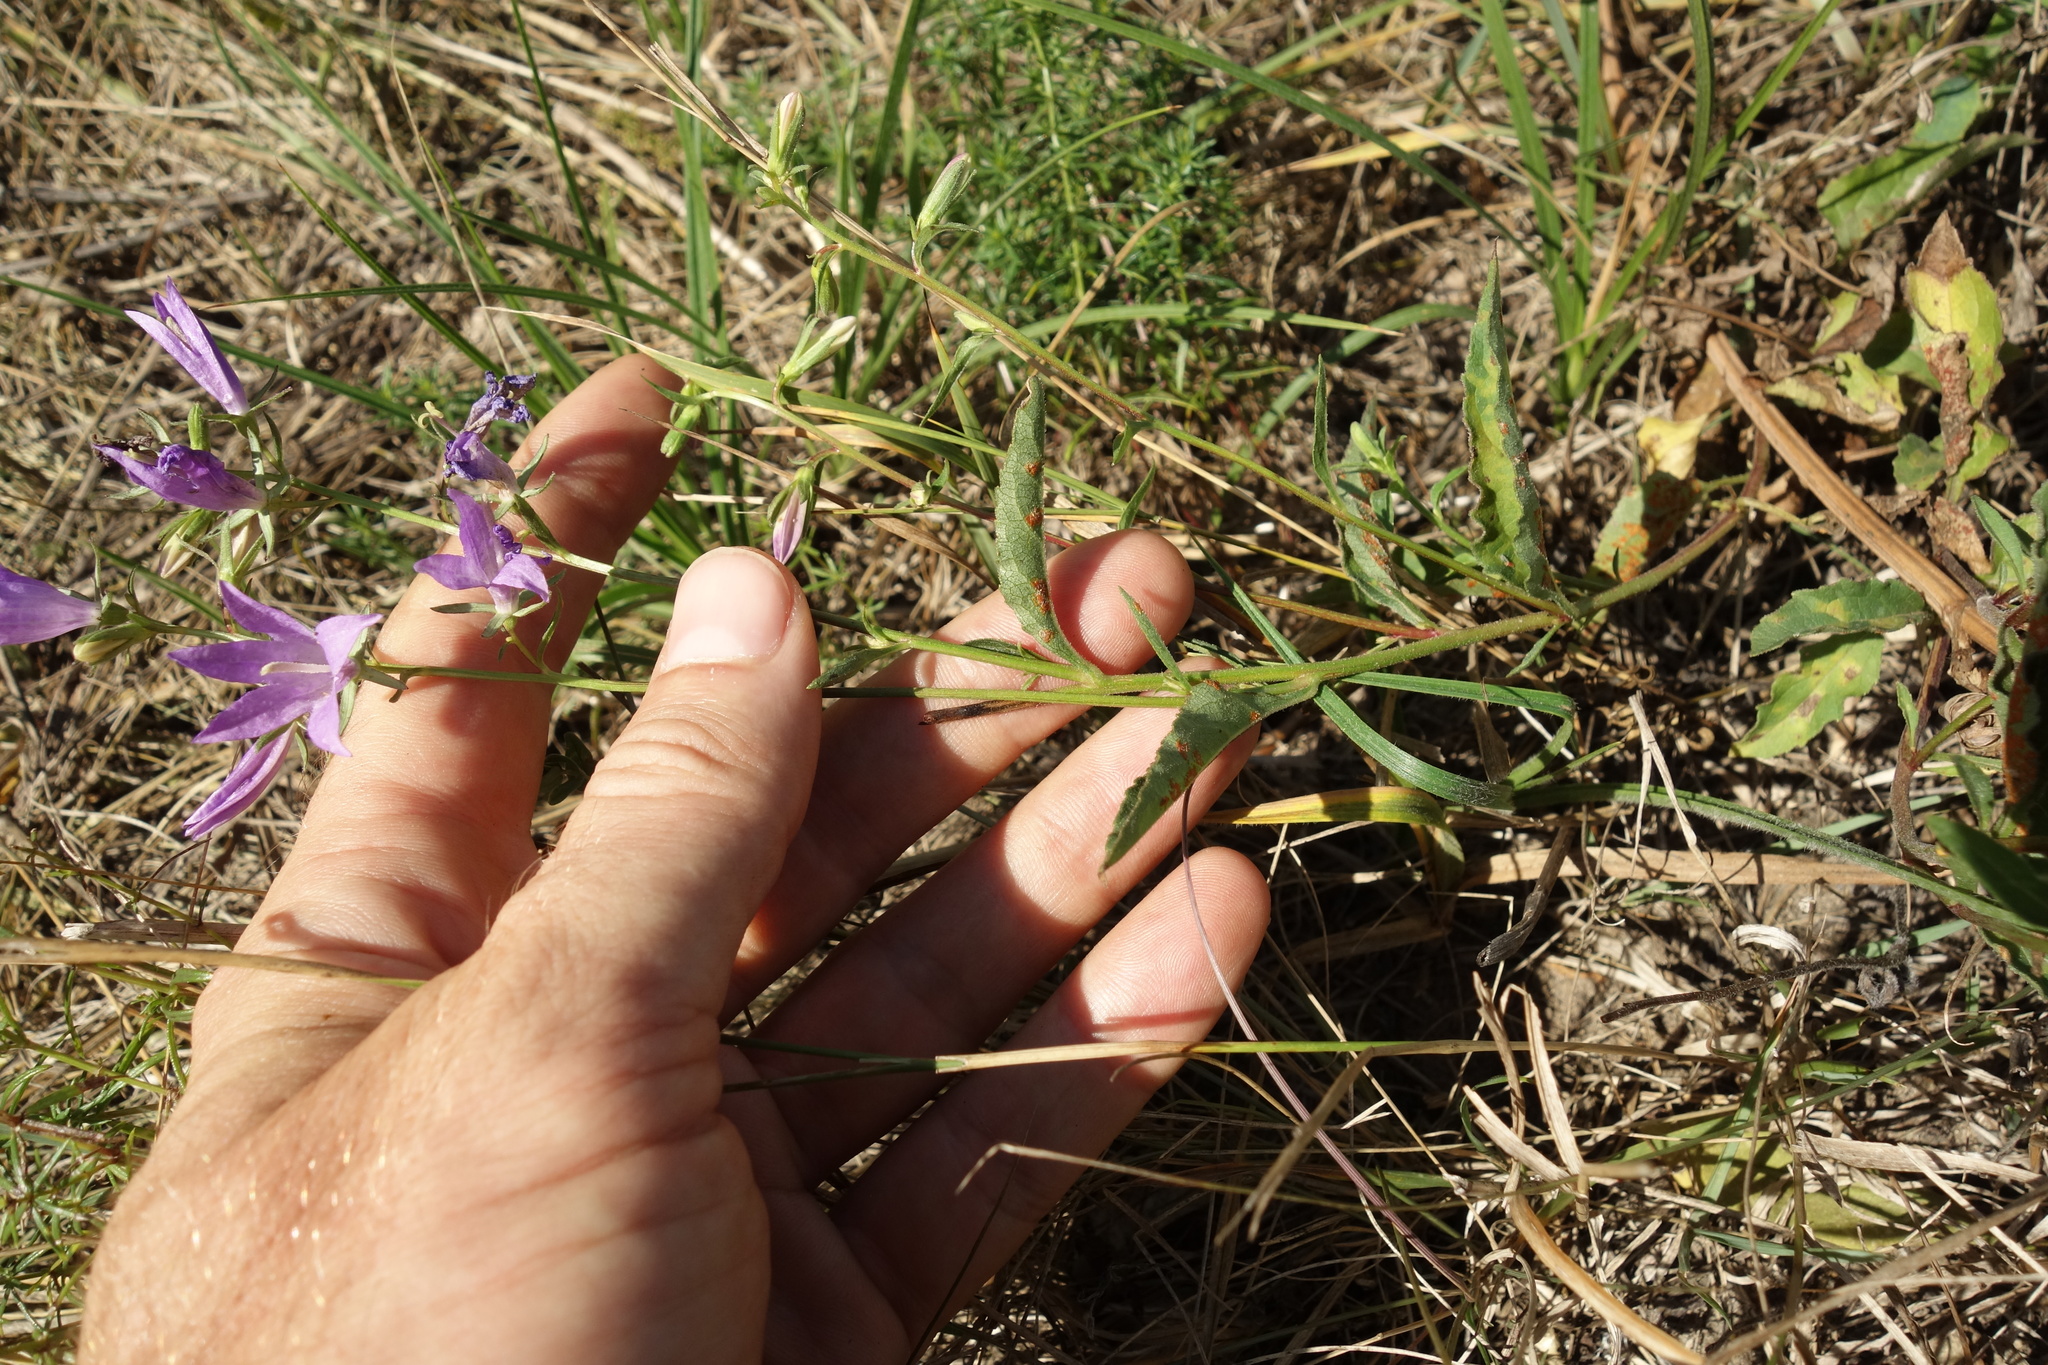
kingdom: Plantae
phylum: Tracheophyta
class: Magnoliopsida
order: Asterales
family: Campanulaceae
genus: Campanula
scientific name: Campanula rapunculoides
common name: Creeping bellflower
